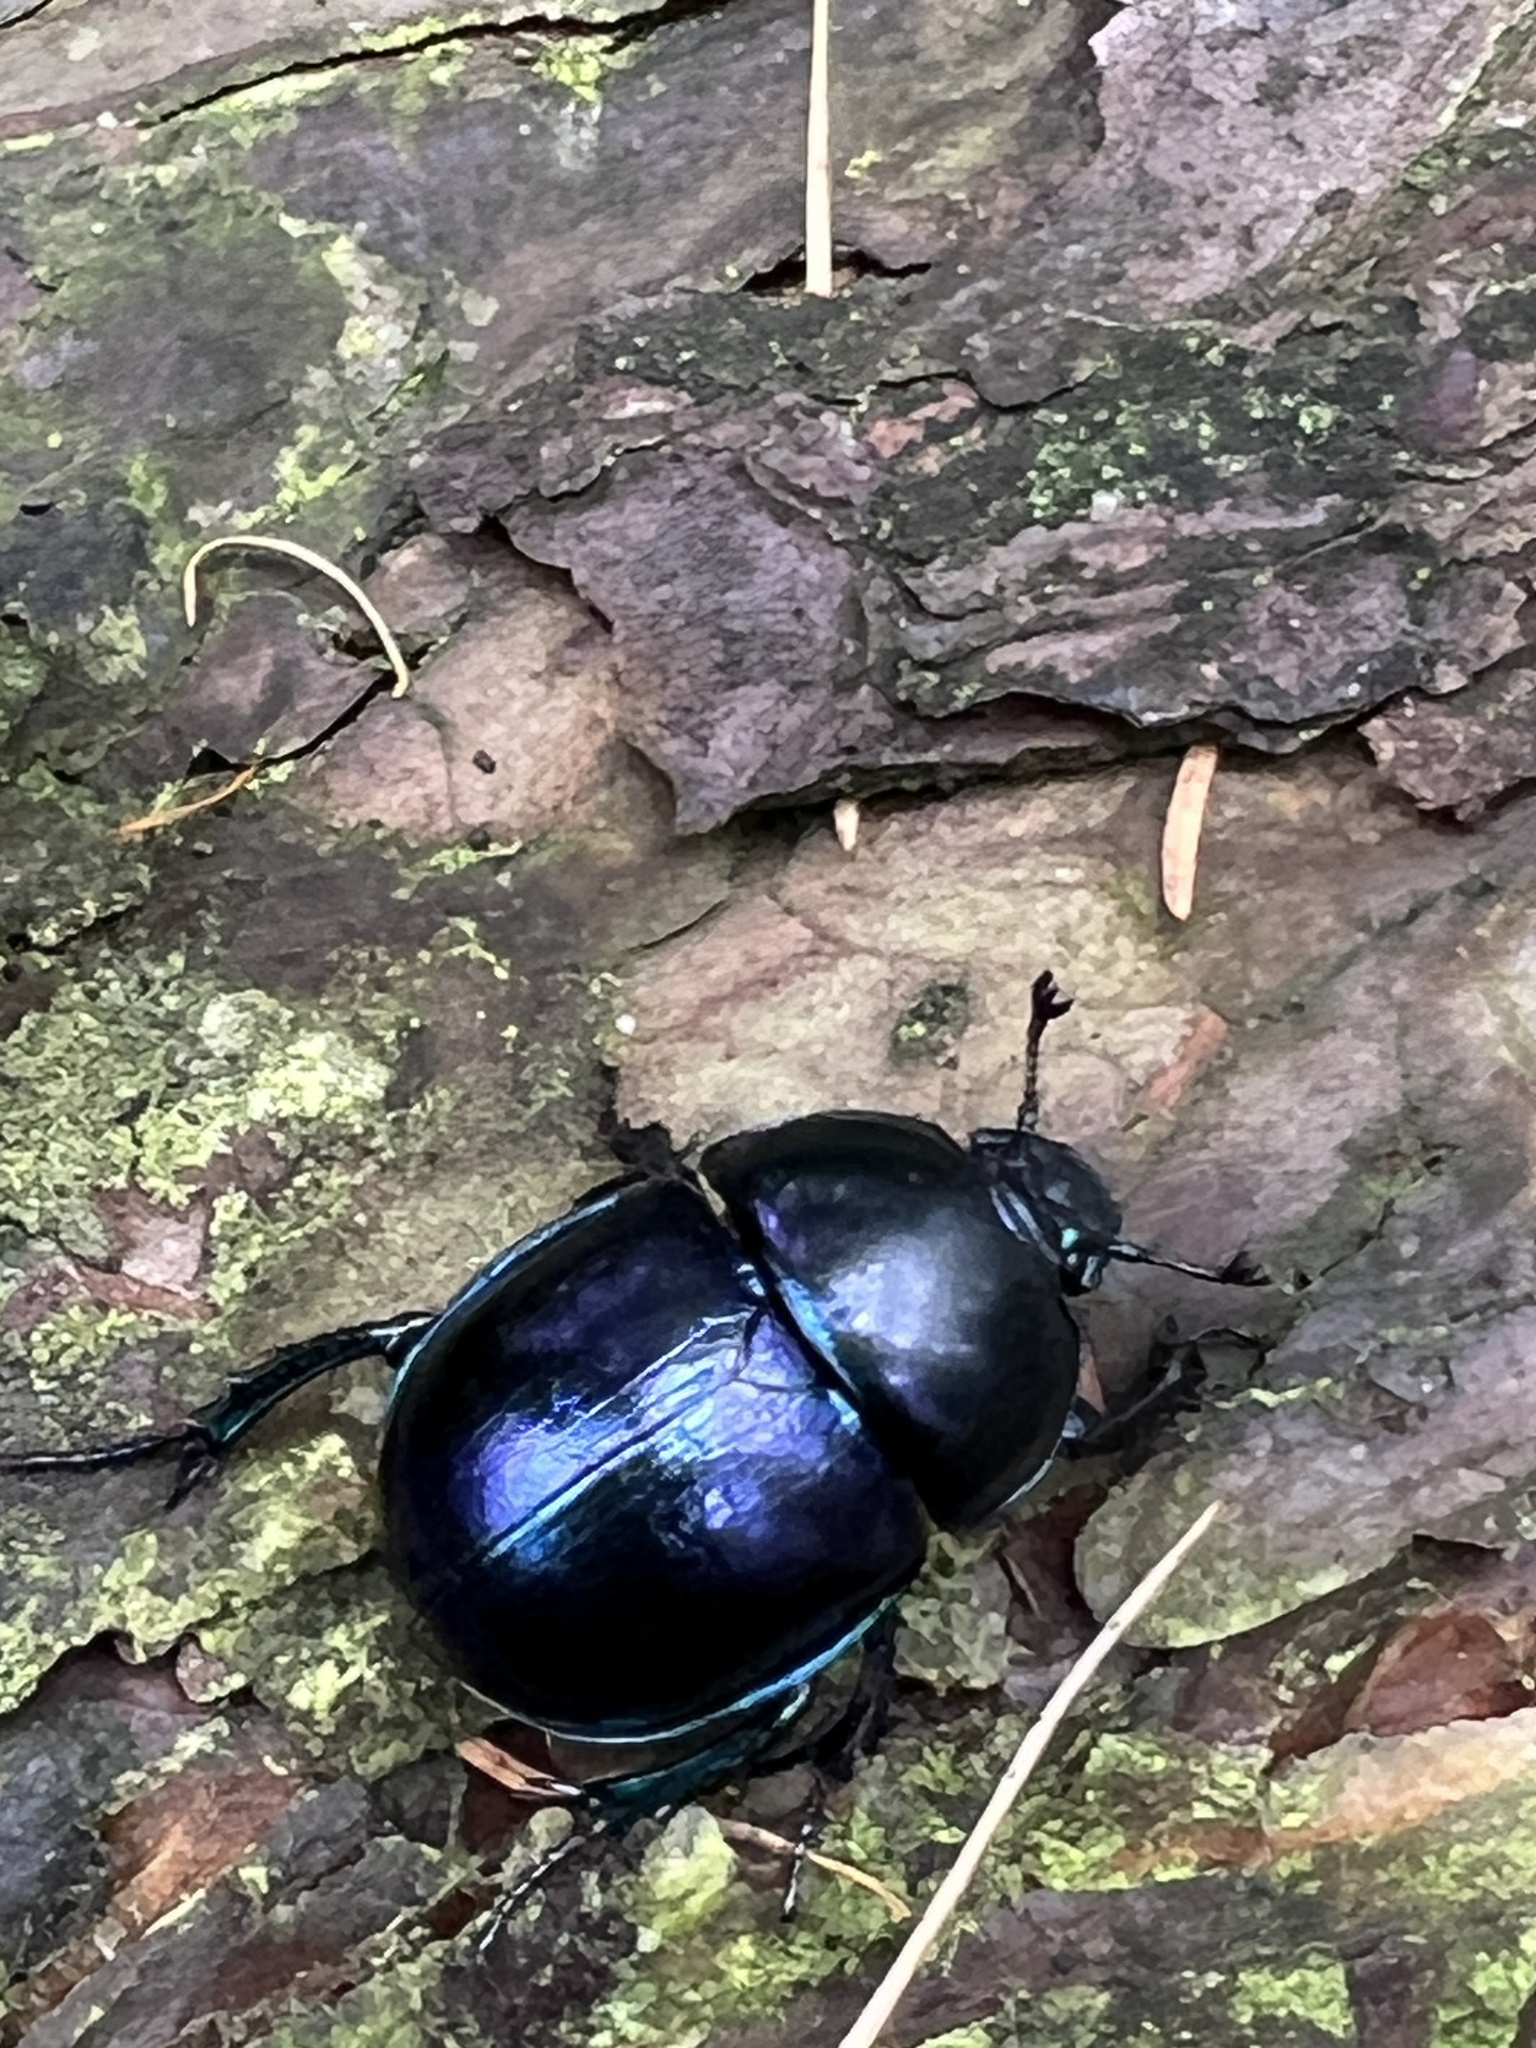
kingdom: Animalia
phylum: Arthropoda
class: Insecta
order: Coleoptera
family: Geotrupidae
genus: Trypocopris
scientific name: Trypocopris vernalis
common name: Spring dumbledor
